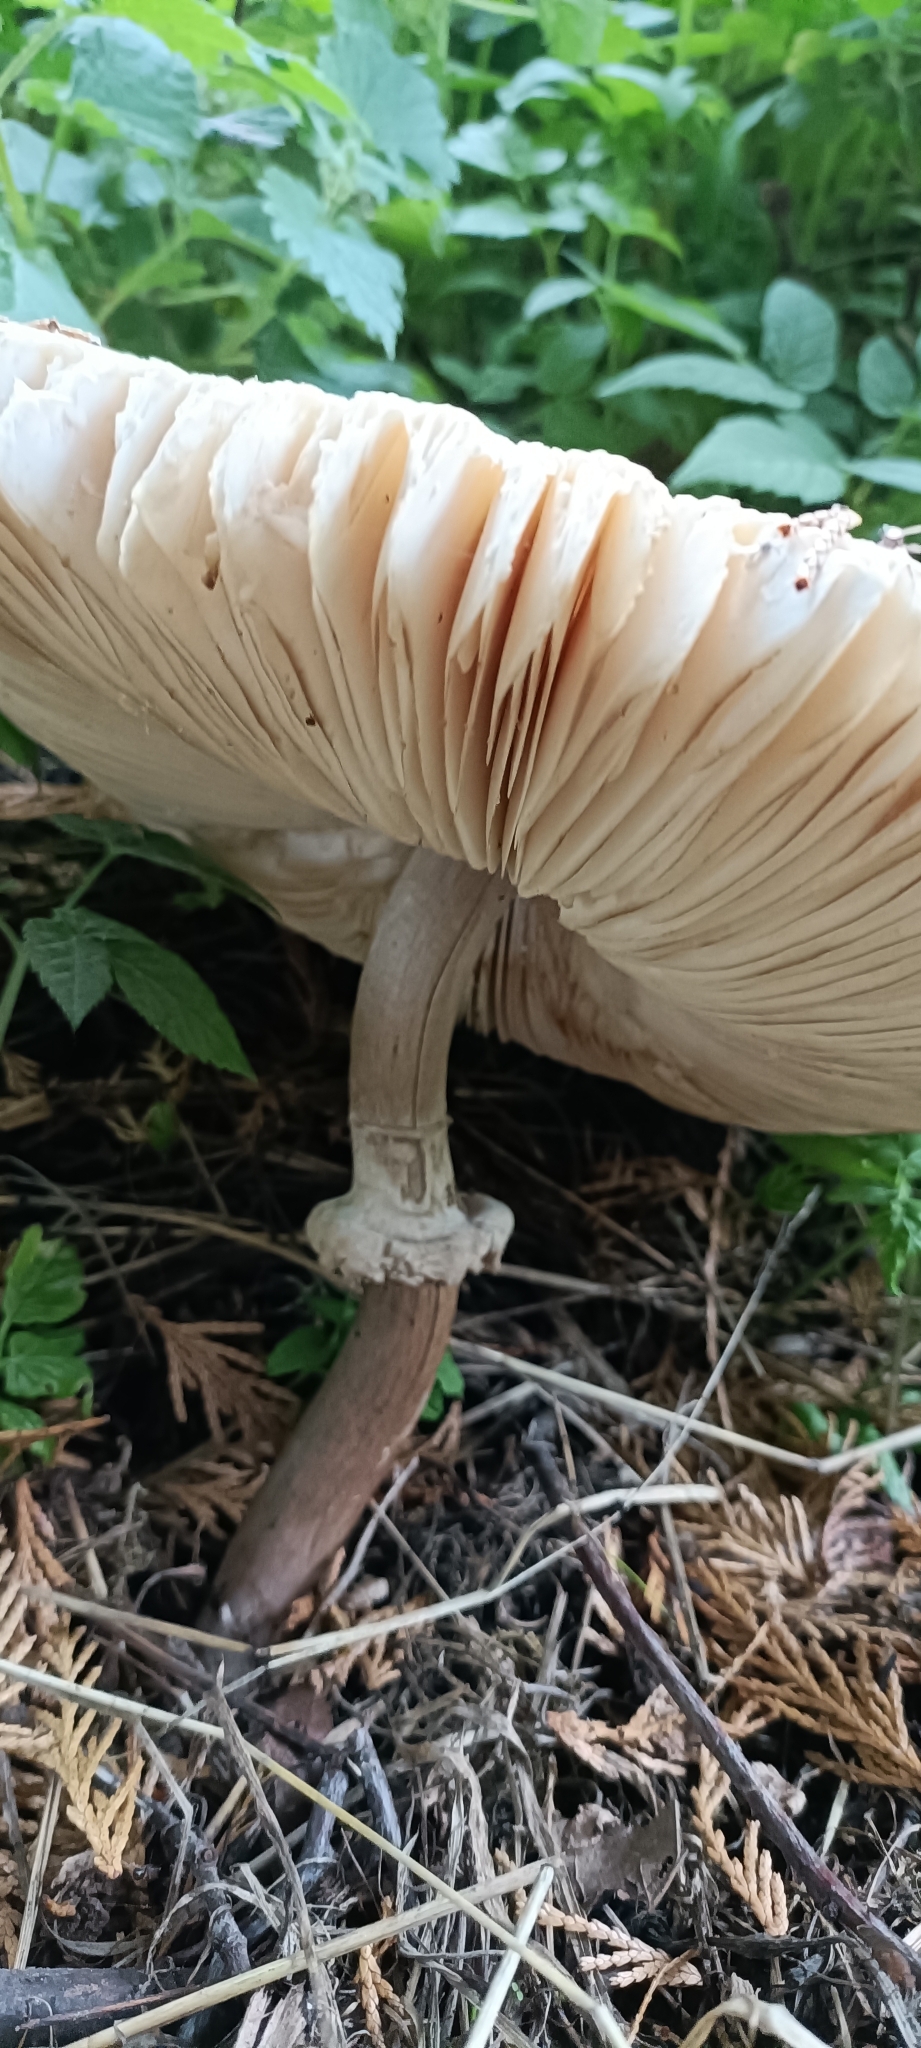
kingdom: Fungi
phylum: Basidiomycota
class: Agaricomycetes
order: Agaricales
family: Agaricaceae
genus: Macrolepiota
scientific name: Macrolepiota procera
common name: Parasol
